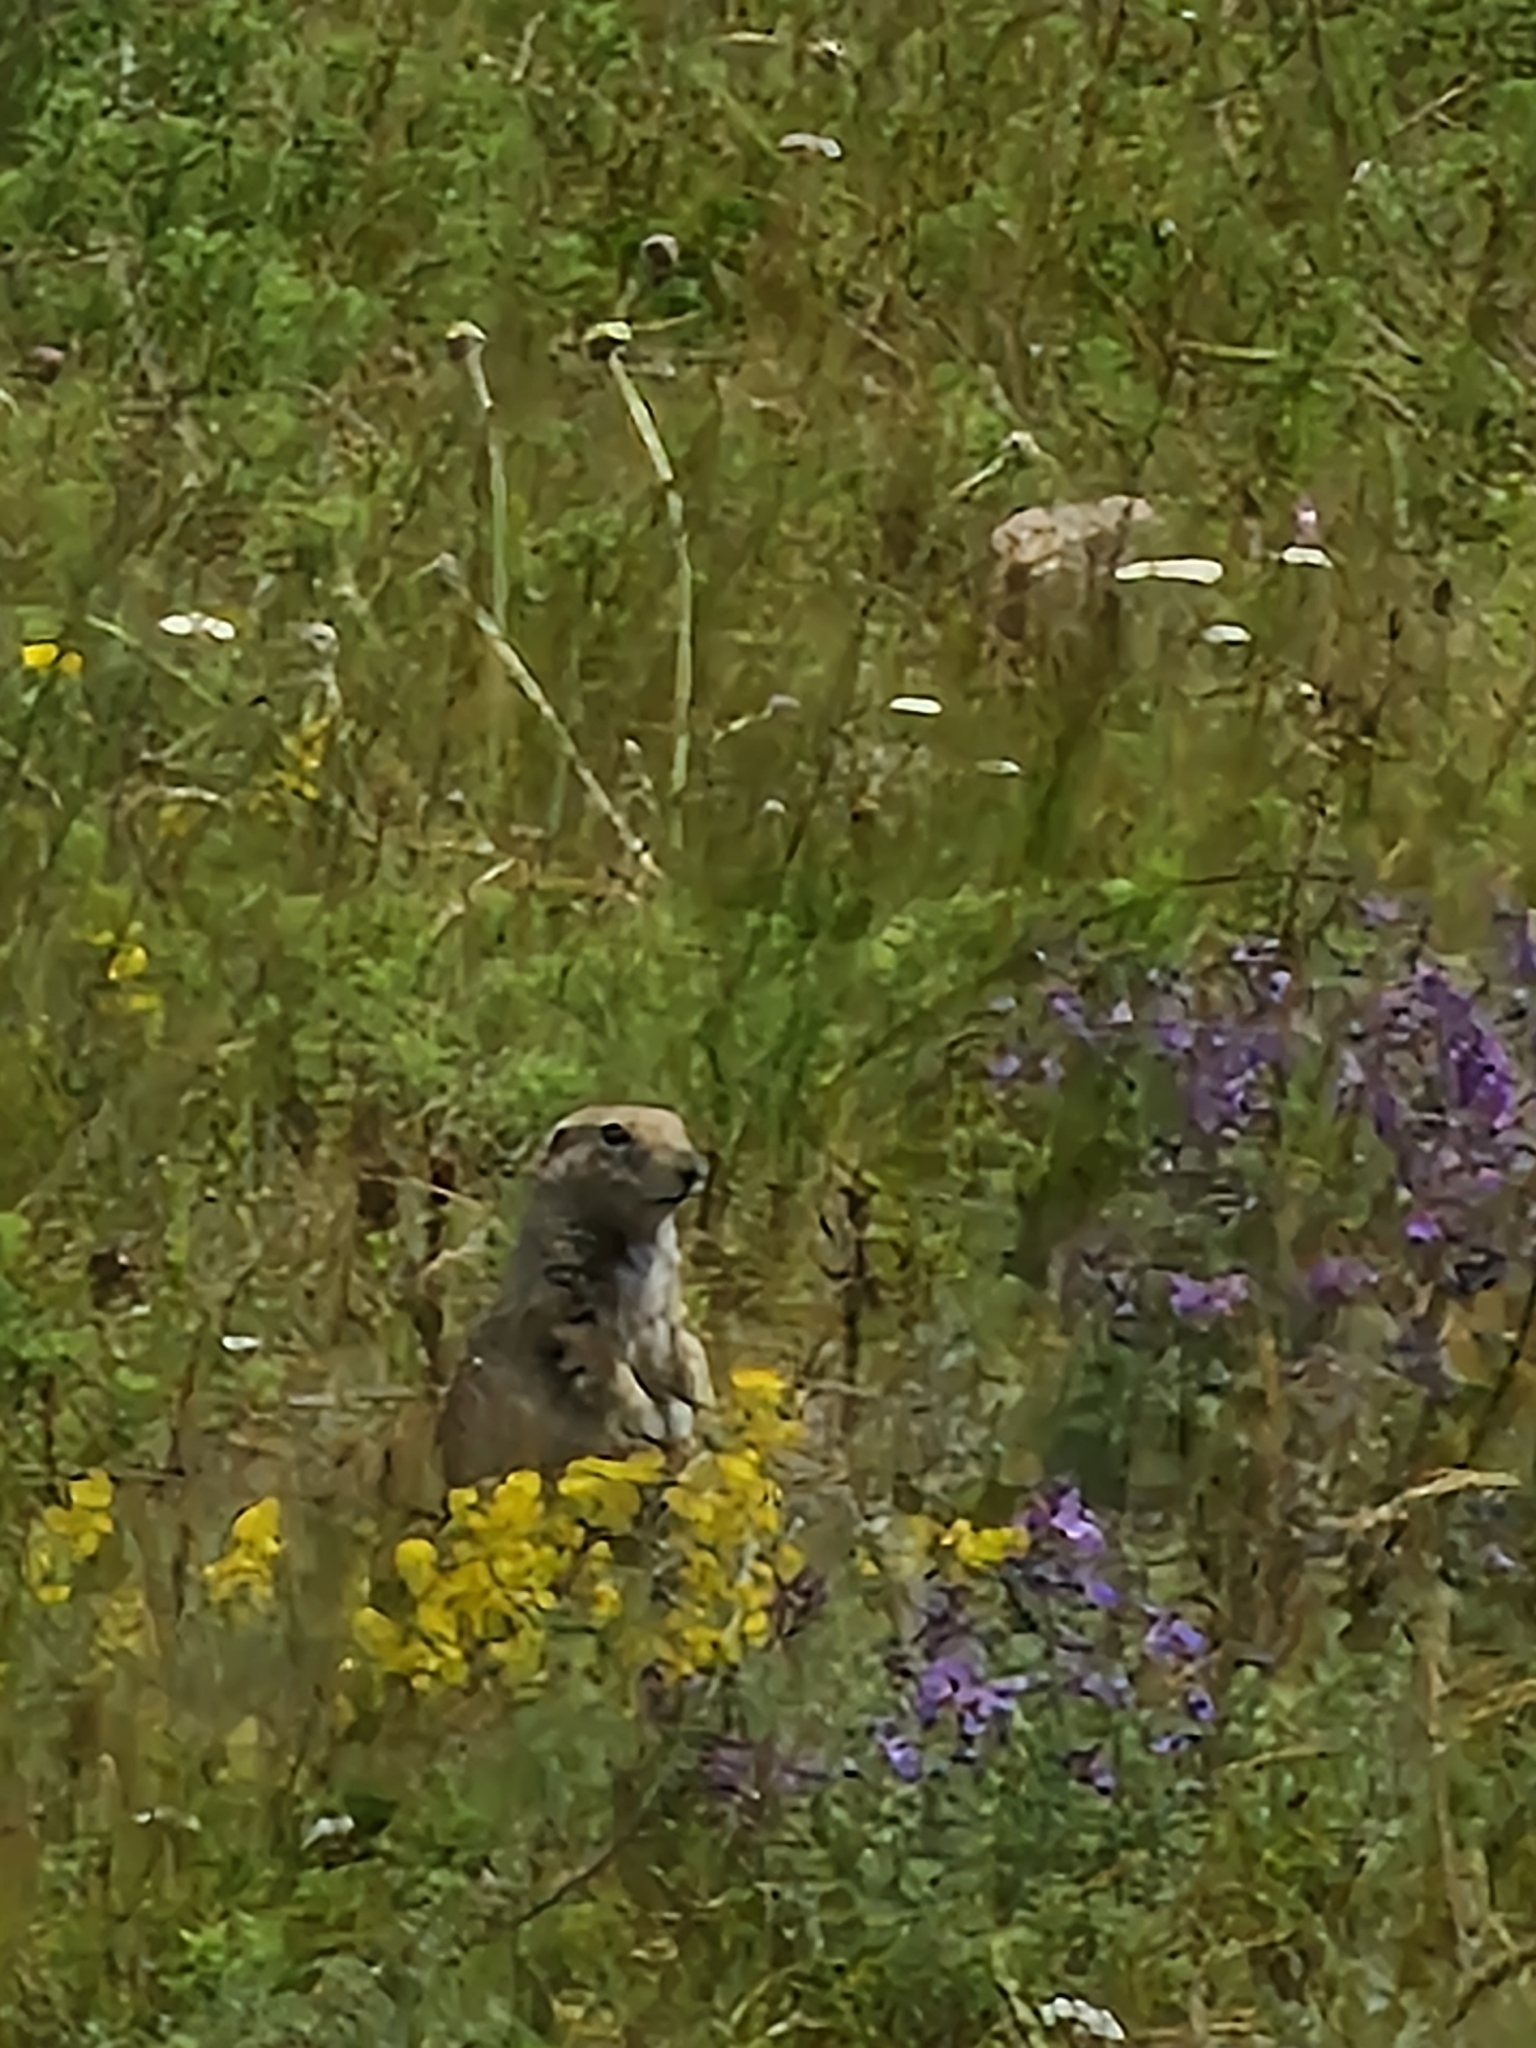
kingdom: Animalia
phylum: Chordata
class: Mammalia
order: Rodentia
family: Sciuridae
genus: Spermophilus
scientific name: Spermophilus musicus
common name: Caucasian mountain ground squirrel
